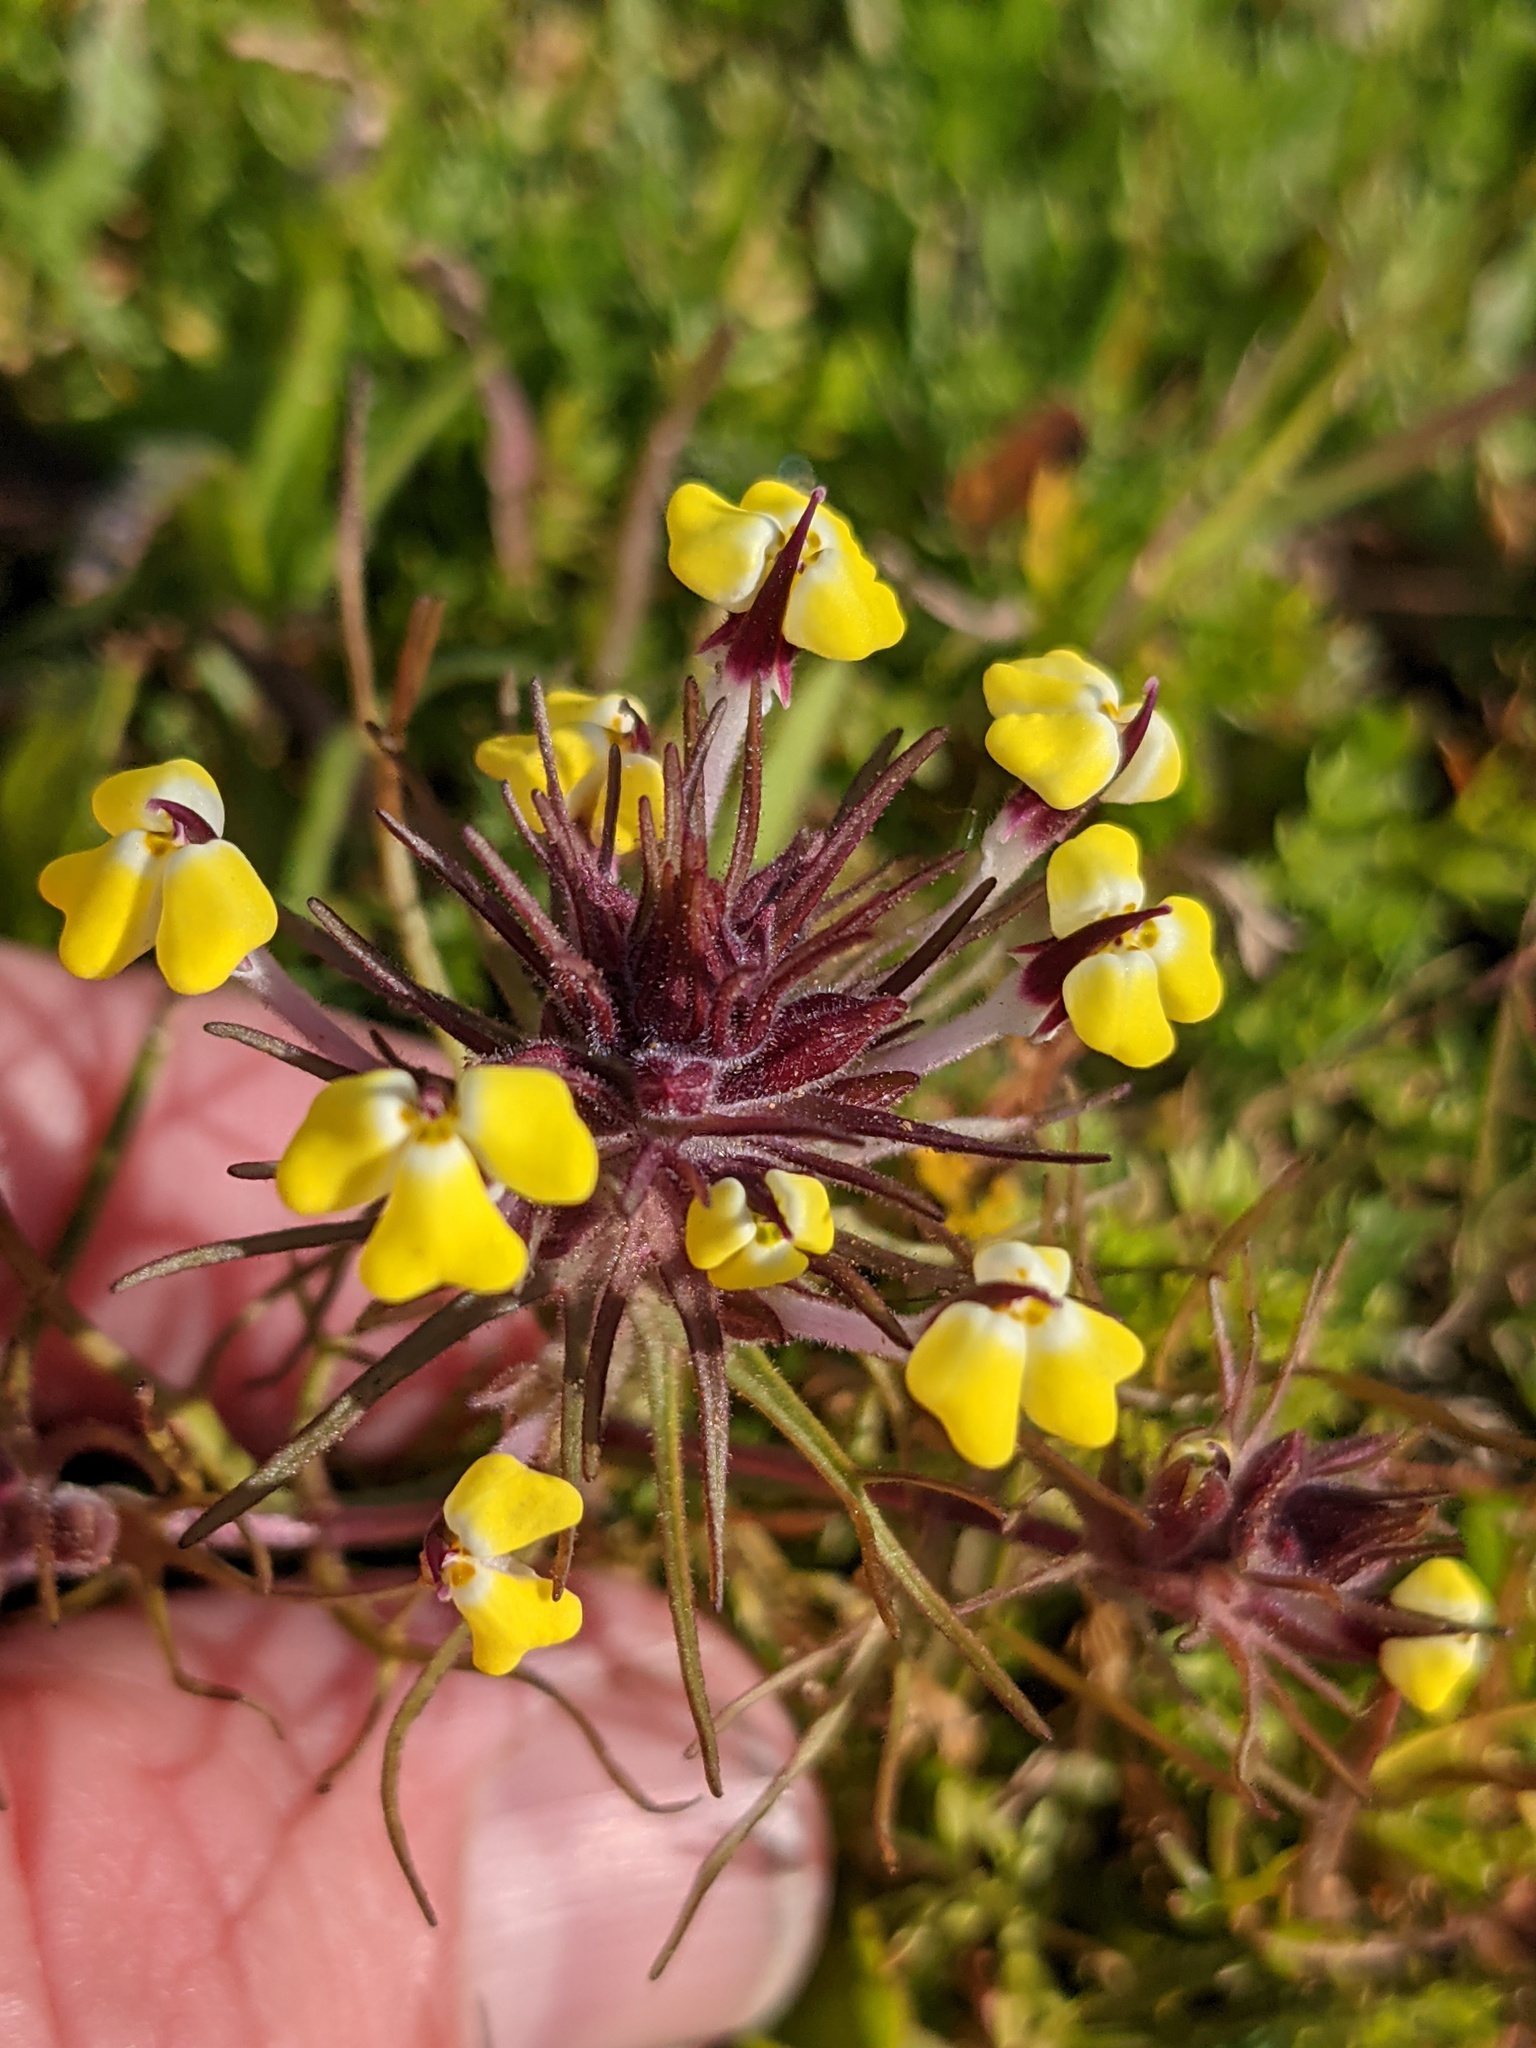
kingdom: Plantae
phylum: Tracheophyta
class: Magnoliopsida
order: Lamiales
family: Orobanchaceae
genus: Triphysaria
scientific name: Triphysaria eriantha
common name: Johnny-tuck
